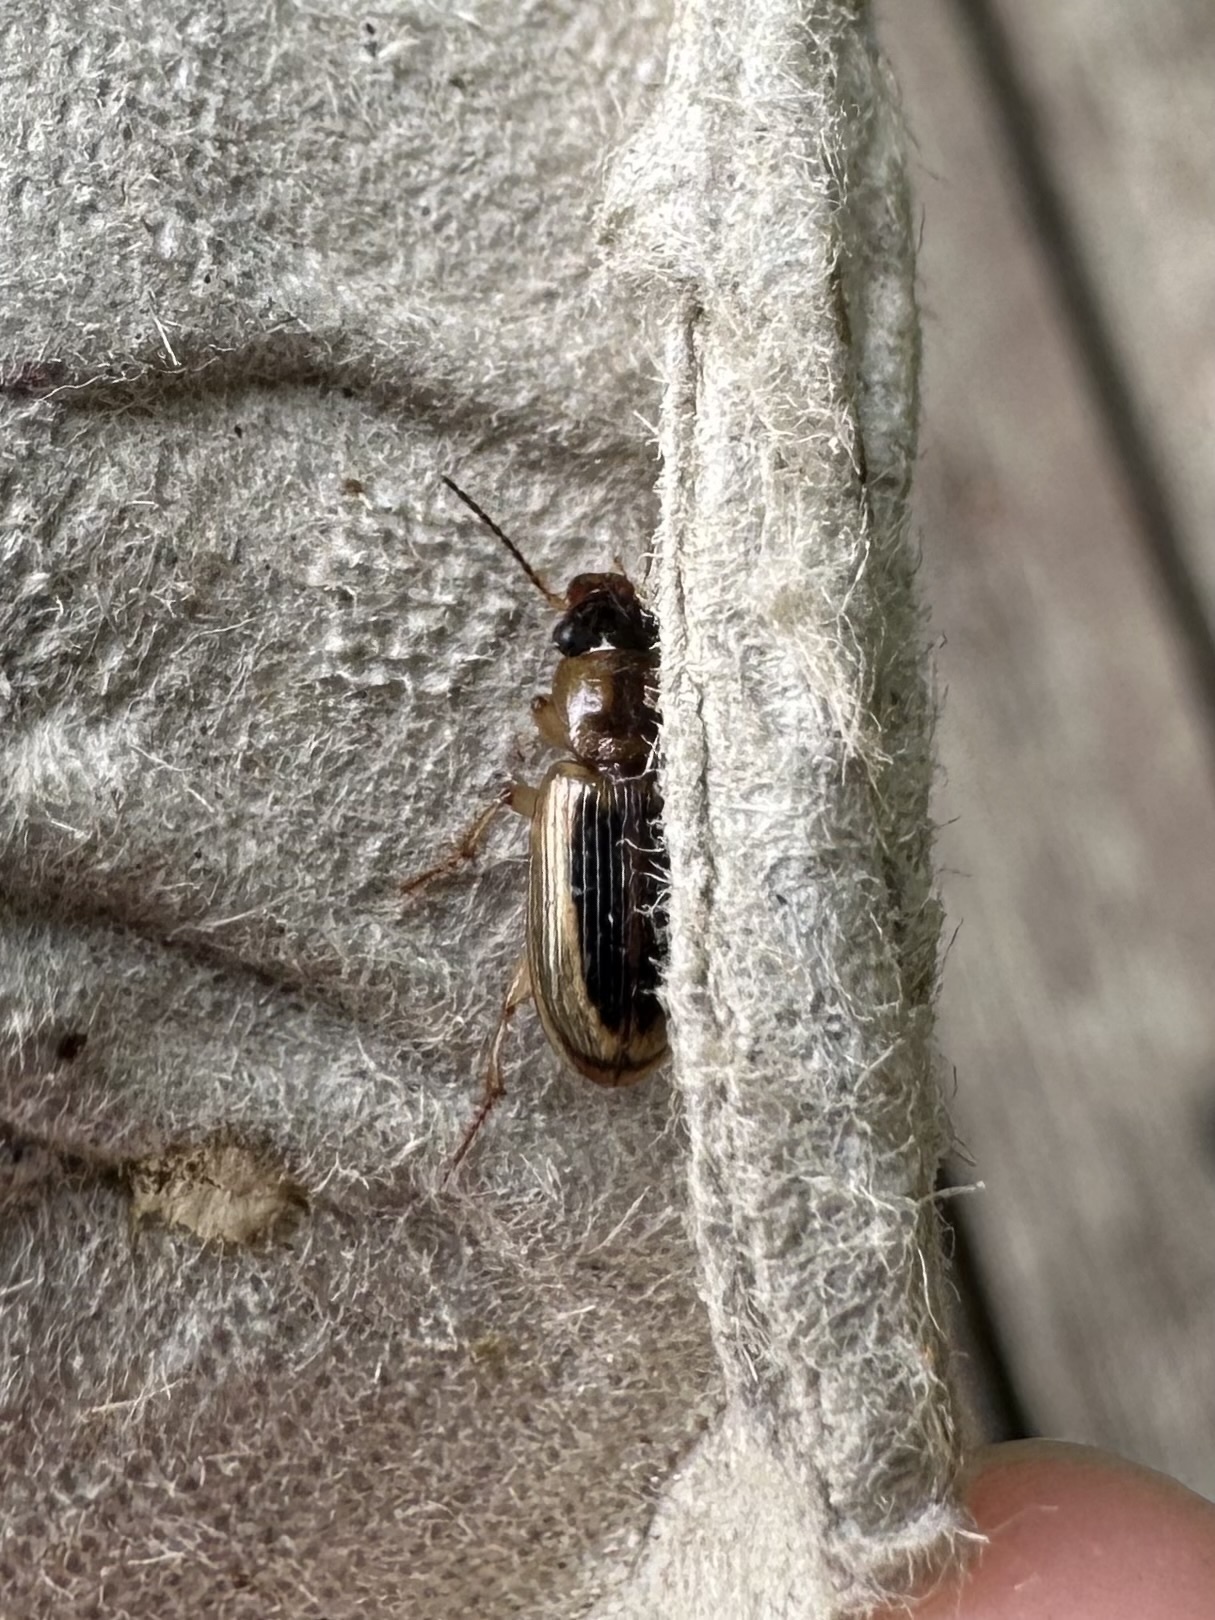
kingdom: Animalia
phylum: Arthropoda
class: Insecta
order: Coleoptera
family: Carabidae
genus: Stenolophus
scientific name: Stenolophus lecontei
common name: Leconte's seedcorn beetle
